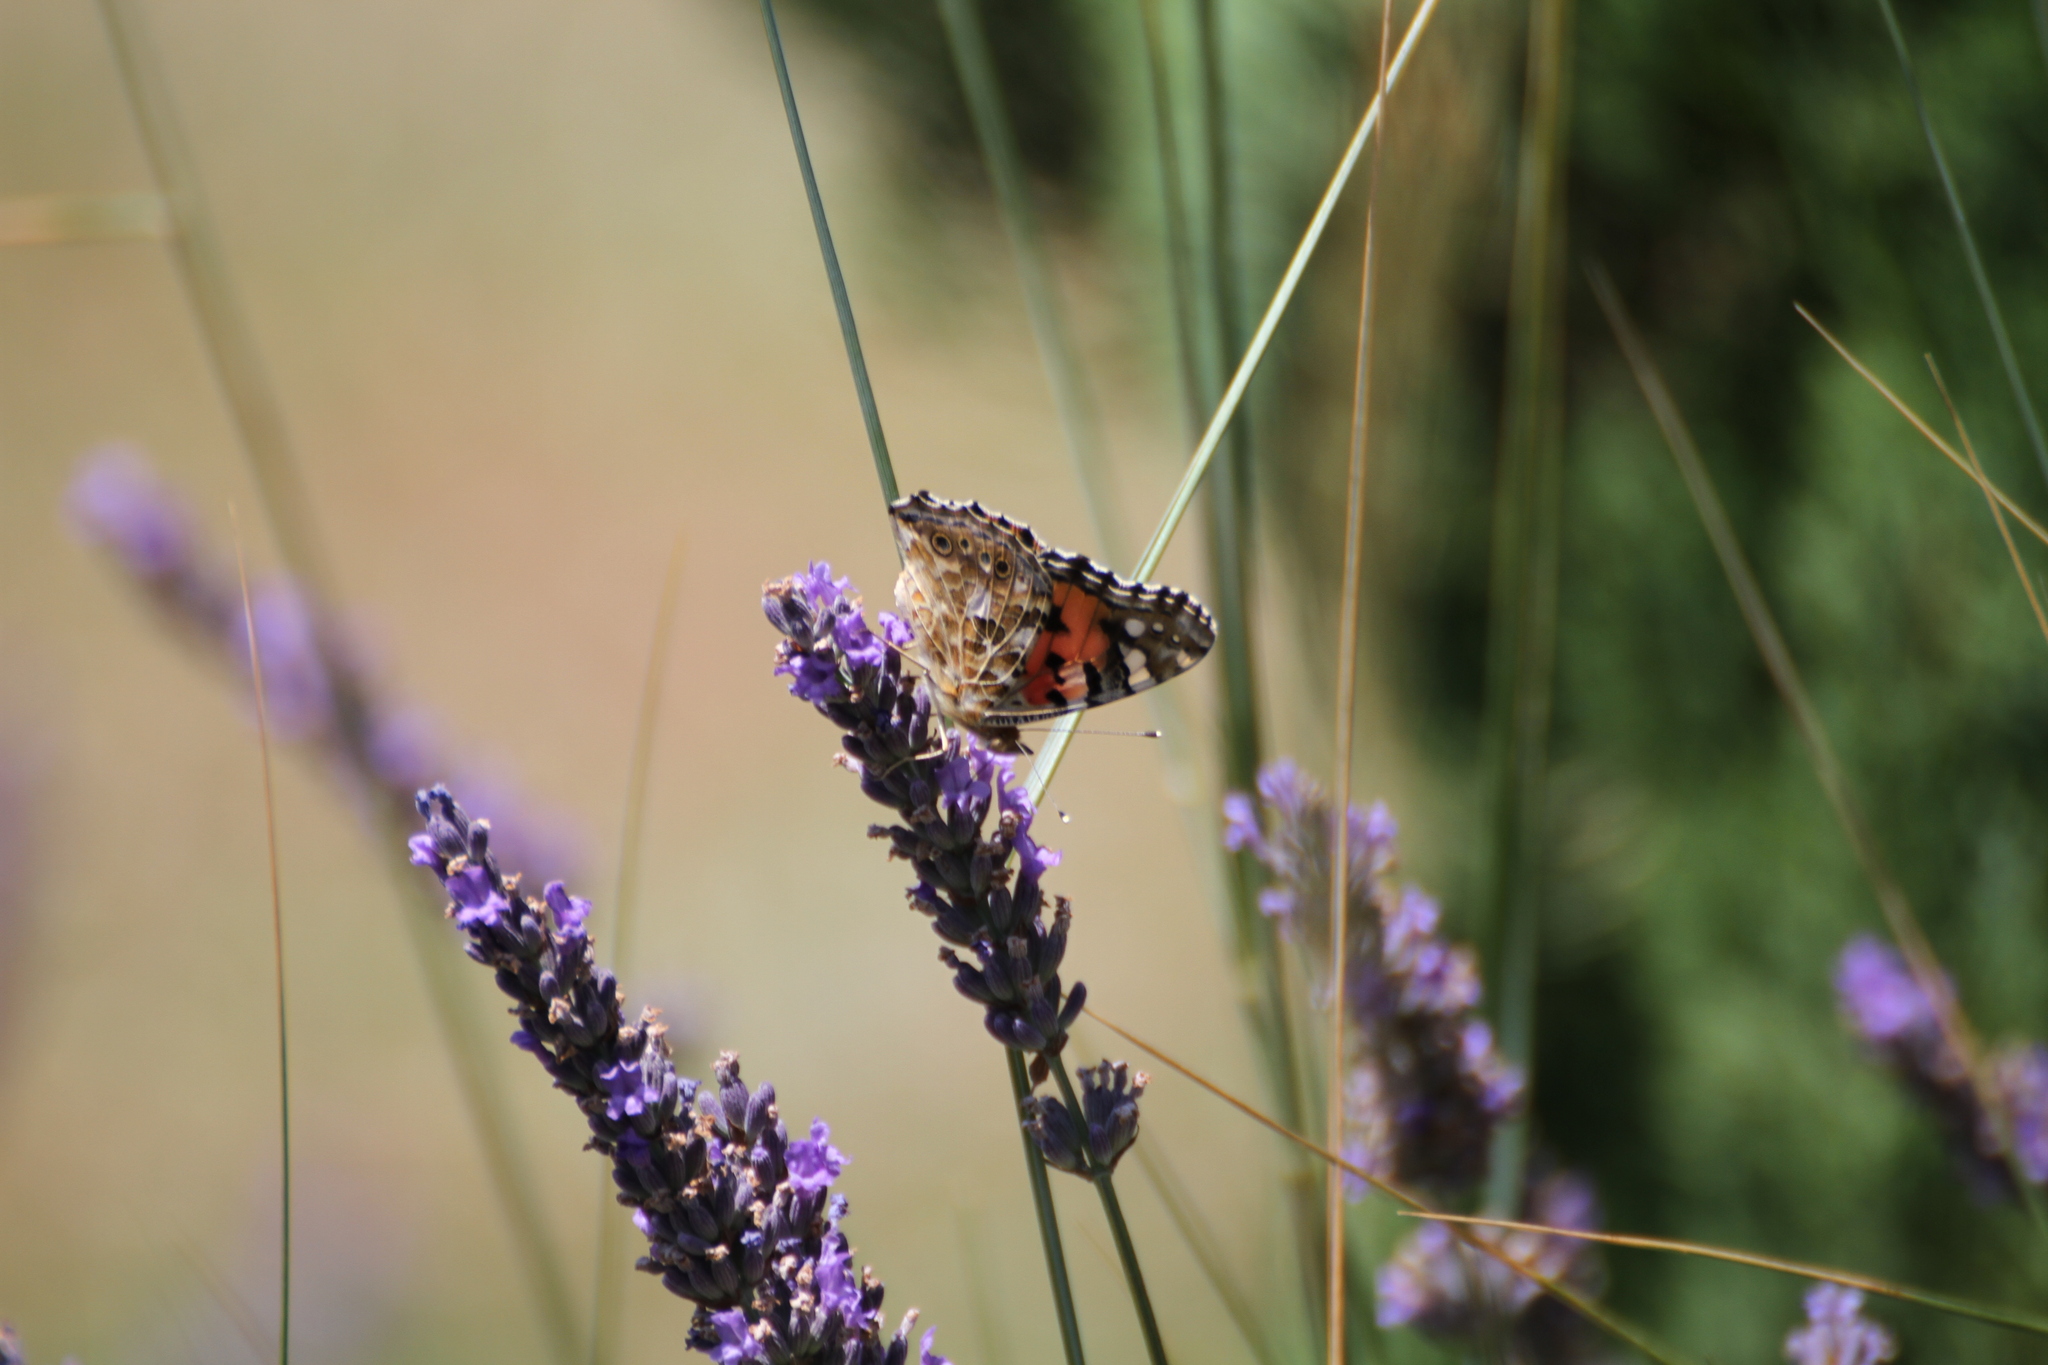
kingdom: Animalia
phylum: Arthropoda
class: Insecta
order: Lepidoptera
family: Nymphalidae
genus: Vanessa
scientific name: Vanessa cardui
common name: Painted lady
